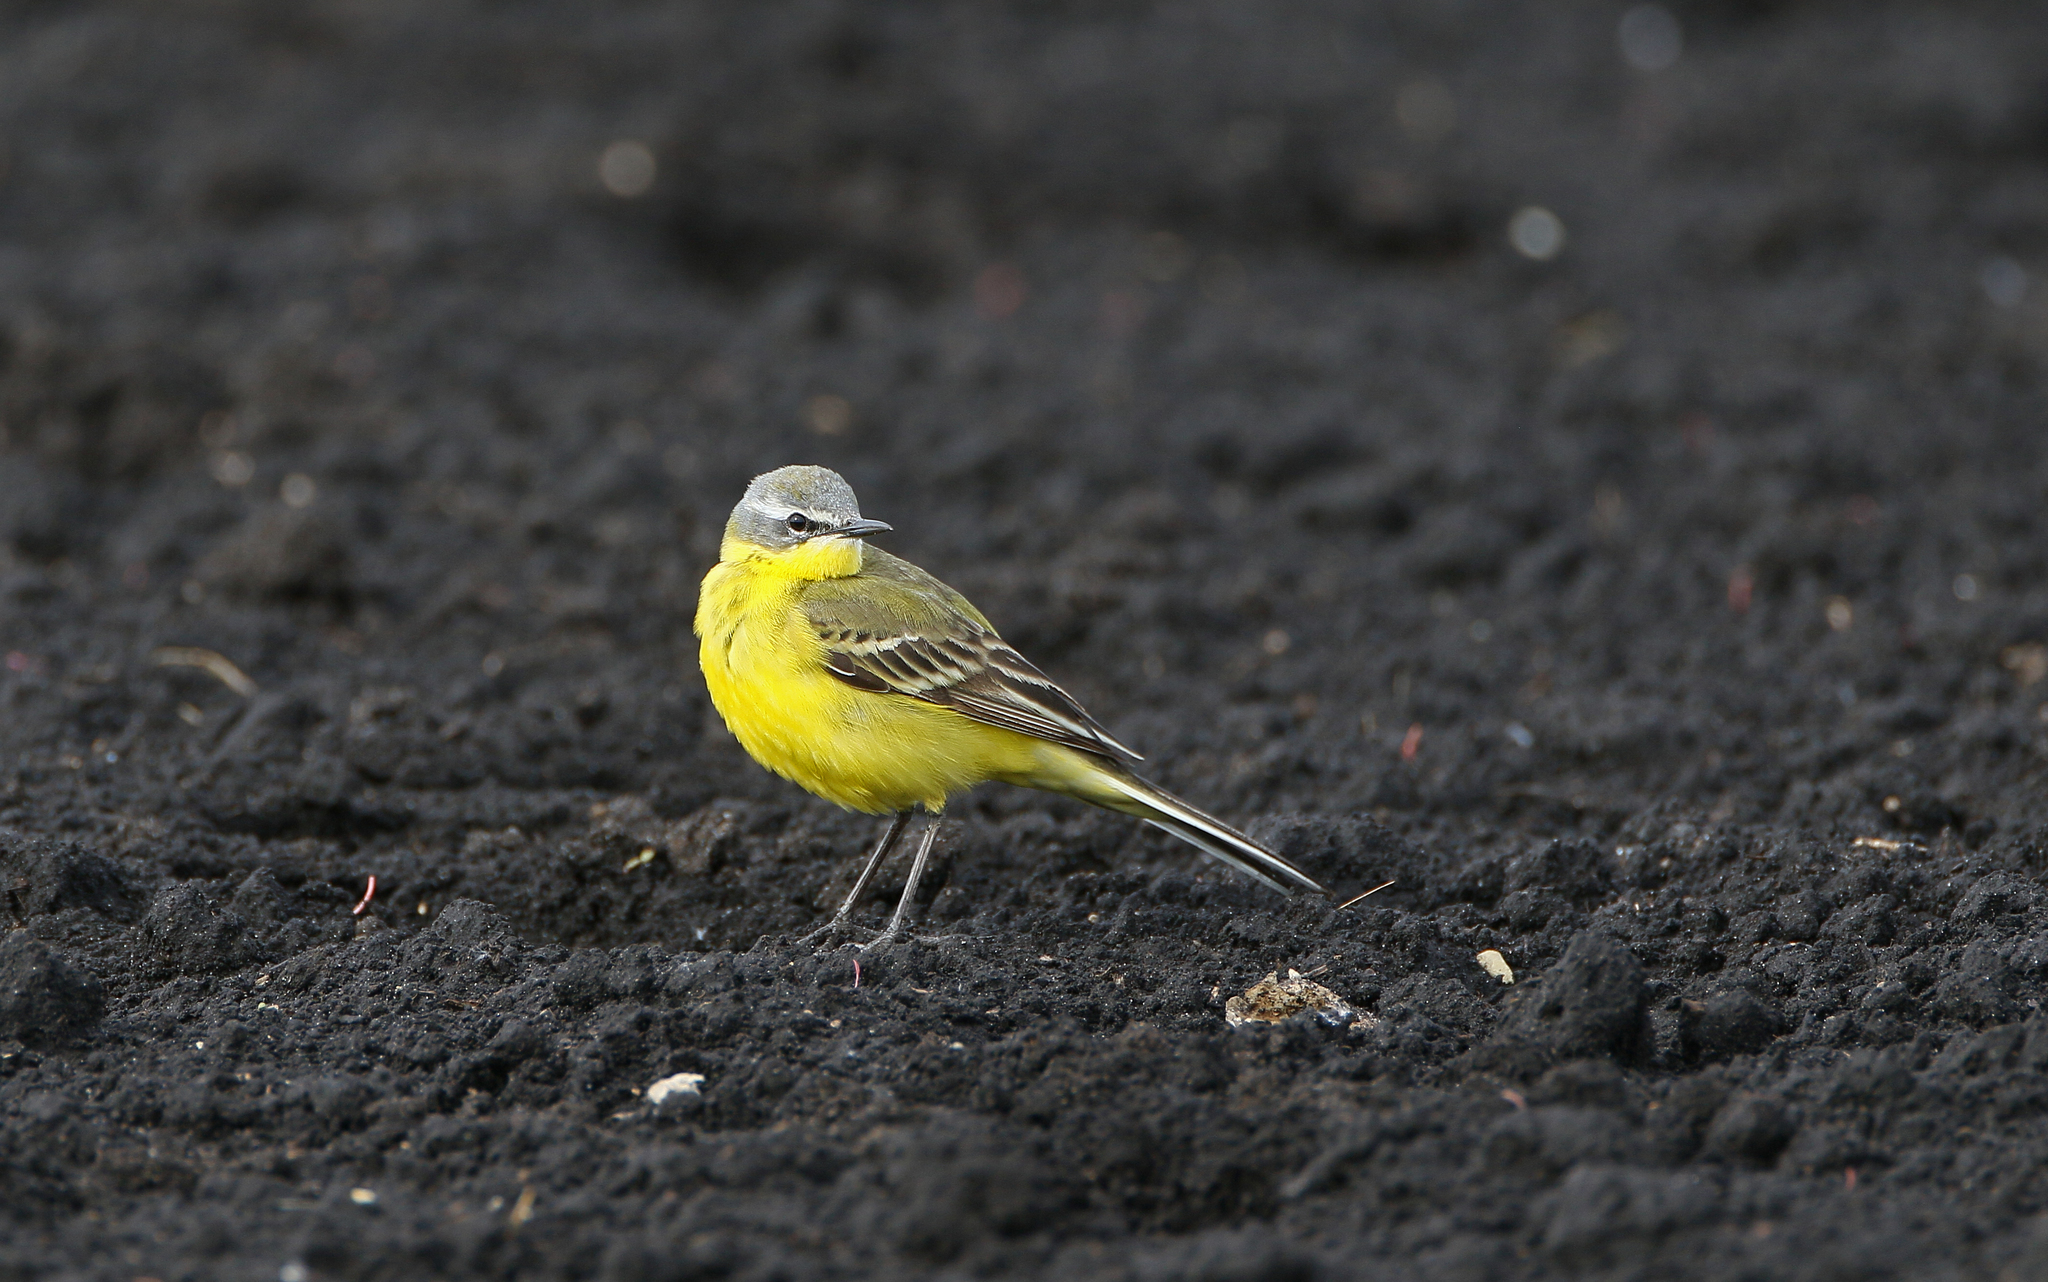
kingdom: Animalia
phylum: Chordata
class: Aves
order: Passeriformes
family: Motacillidae
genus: Motacilla
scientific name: Motacilla flava
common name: Western yellow wagtail
